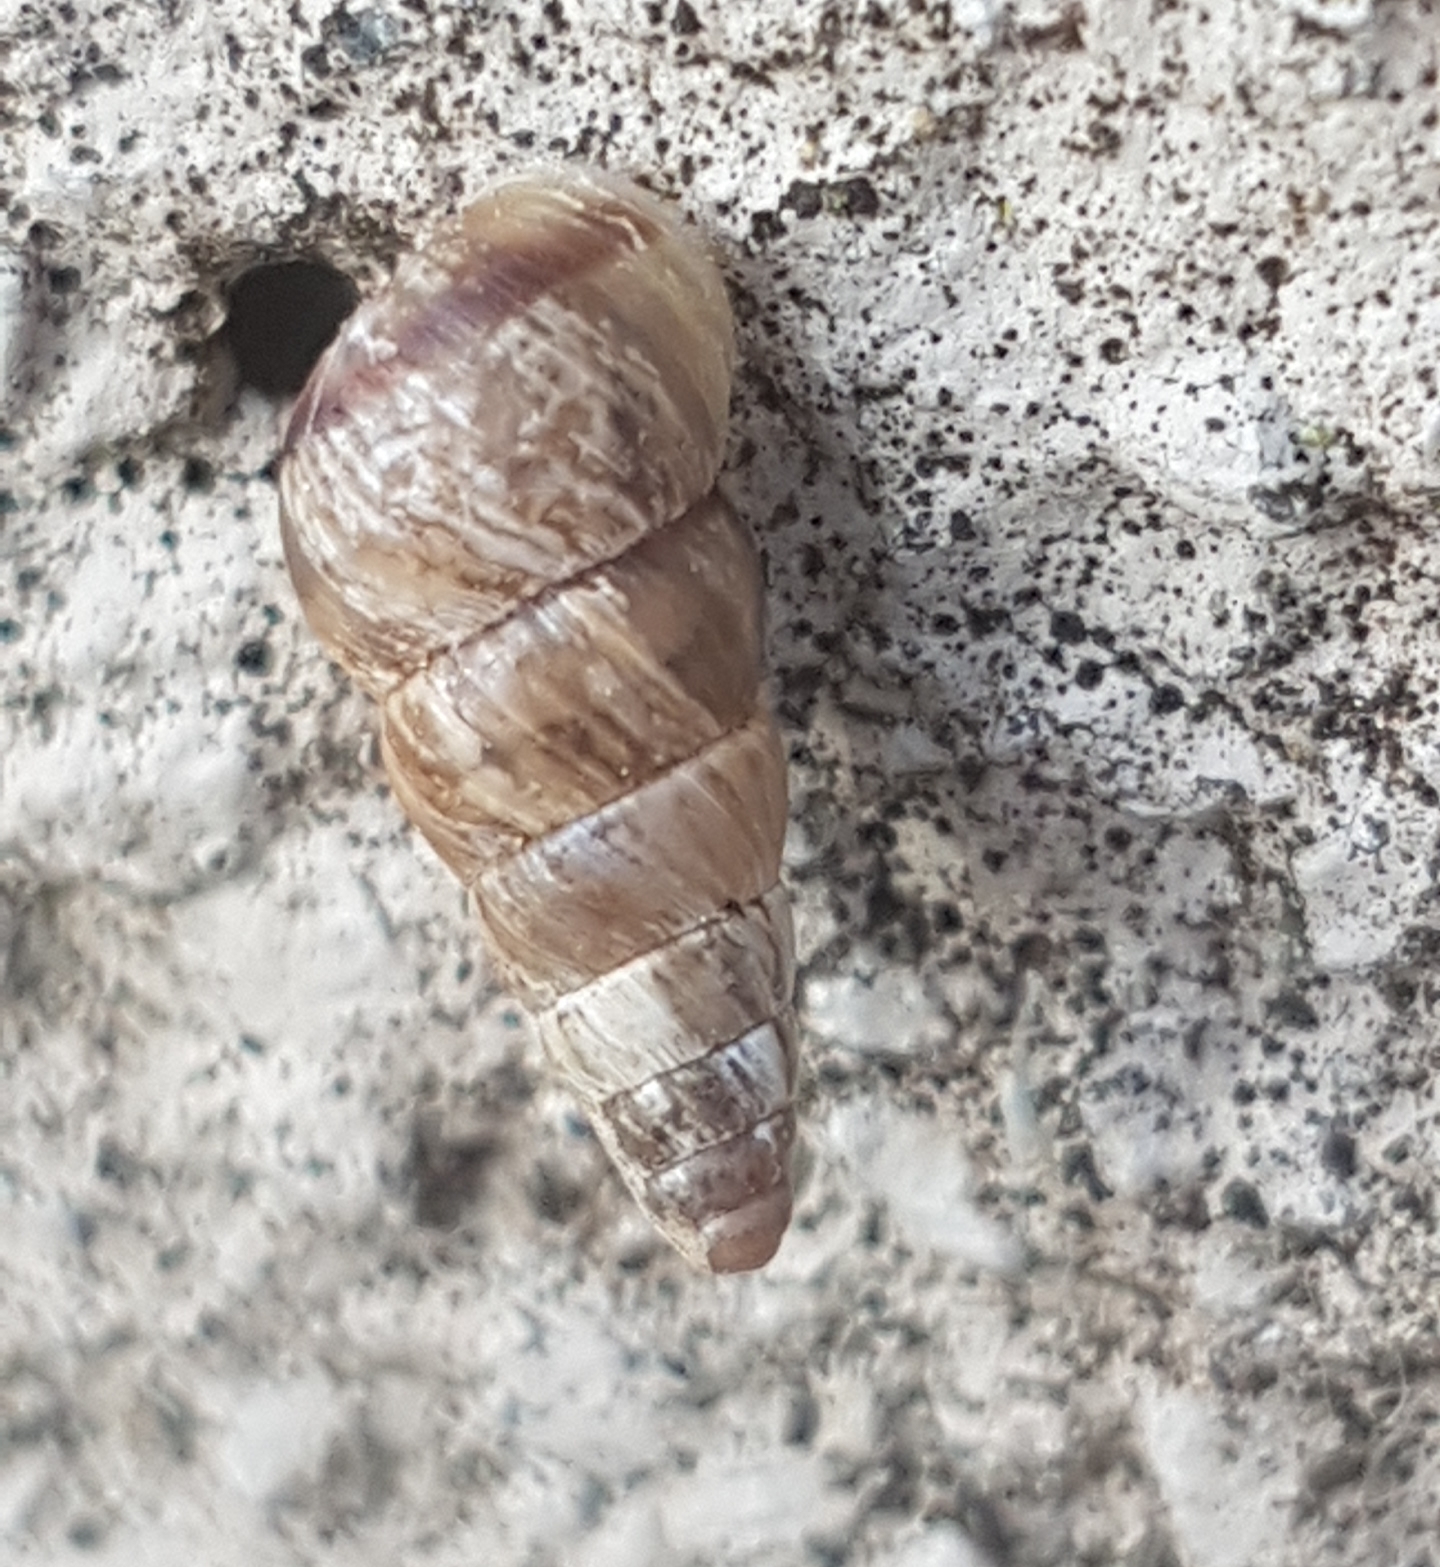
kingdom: Animalia
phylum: Mollusca
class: Gastropoda
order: Stylommatophora
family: Geomitridae
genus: Cochlicella
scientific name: Cochlicella acuta
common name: Pointed snail
